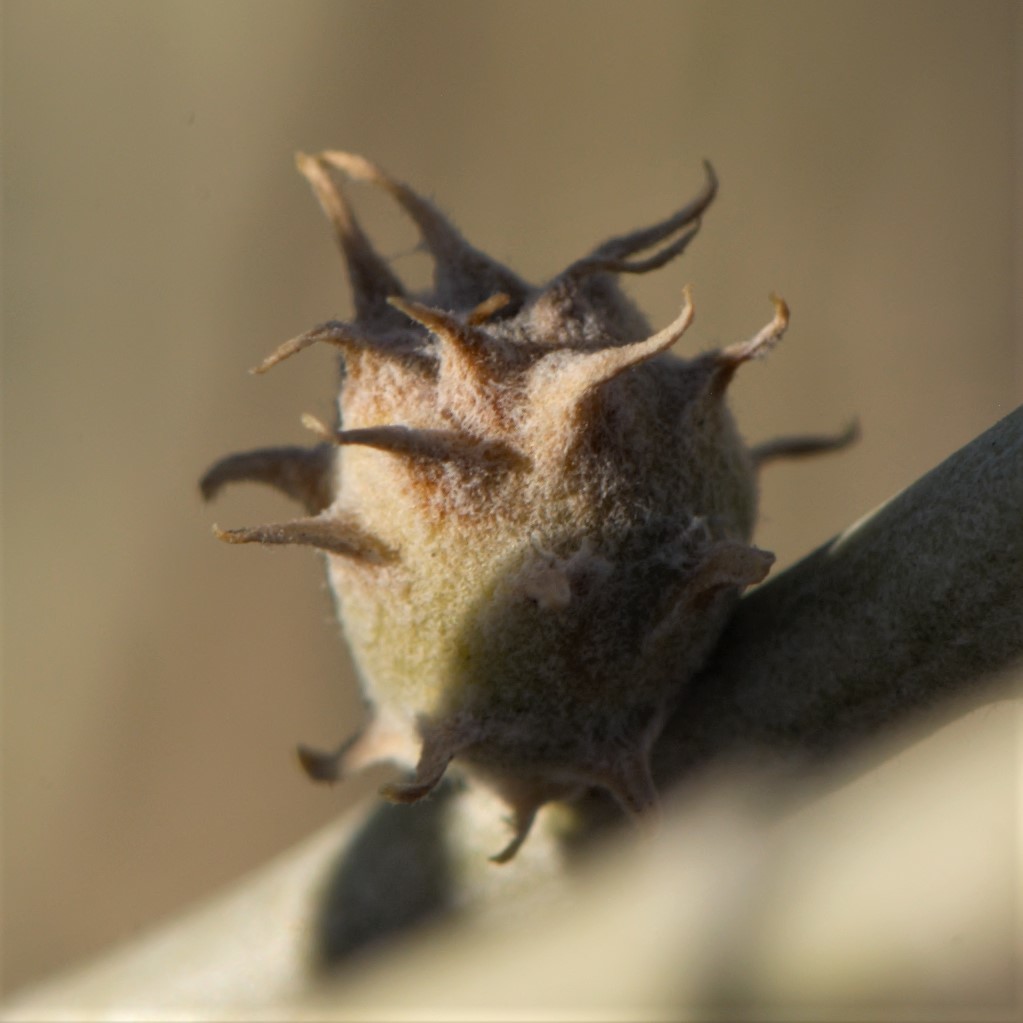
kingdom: Animalia
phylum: Arthropoda
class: Insecta
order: Diptera
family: Cecidomyiidae
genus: Rhopalomyia
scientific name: Rhopalomyia utahensis
